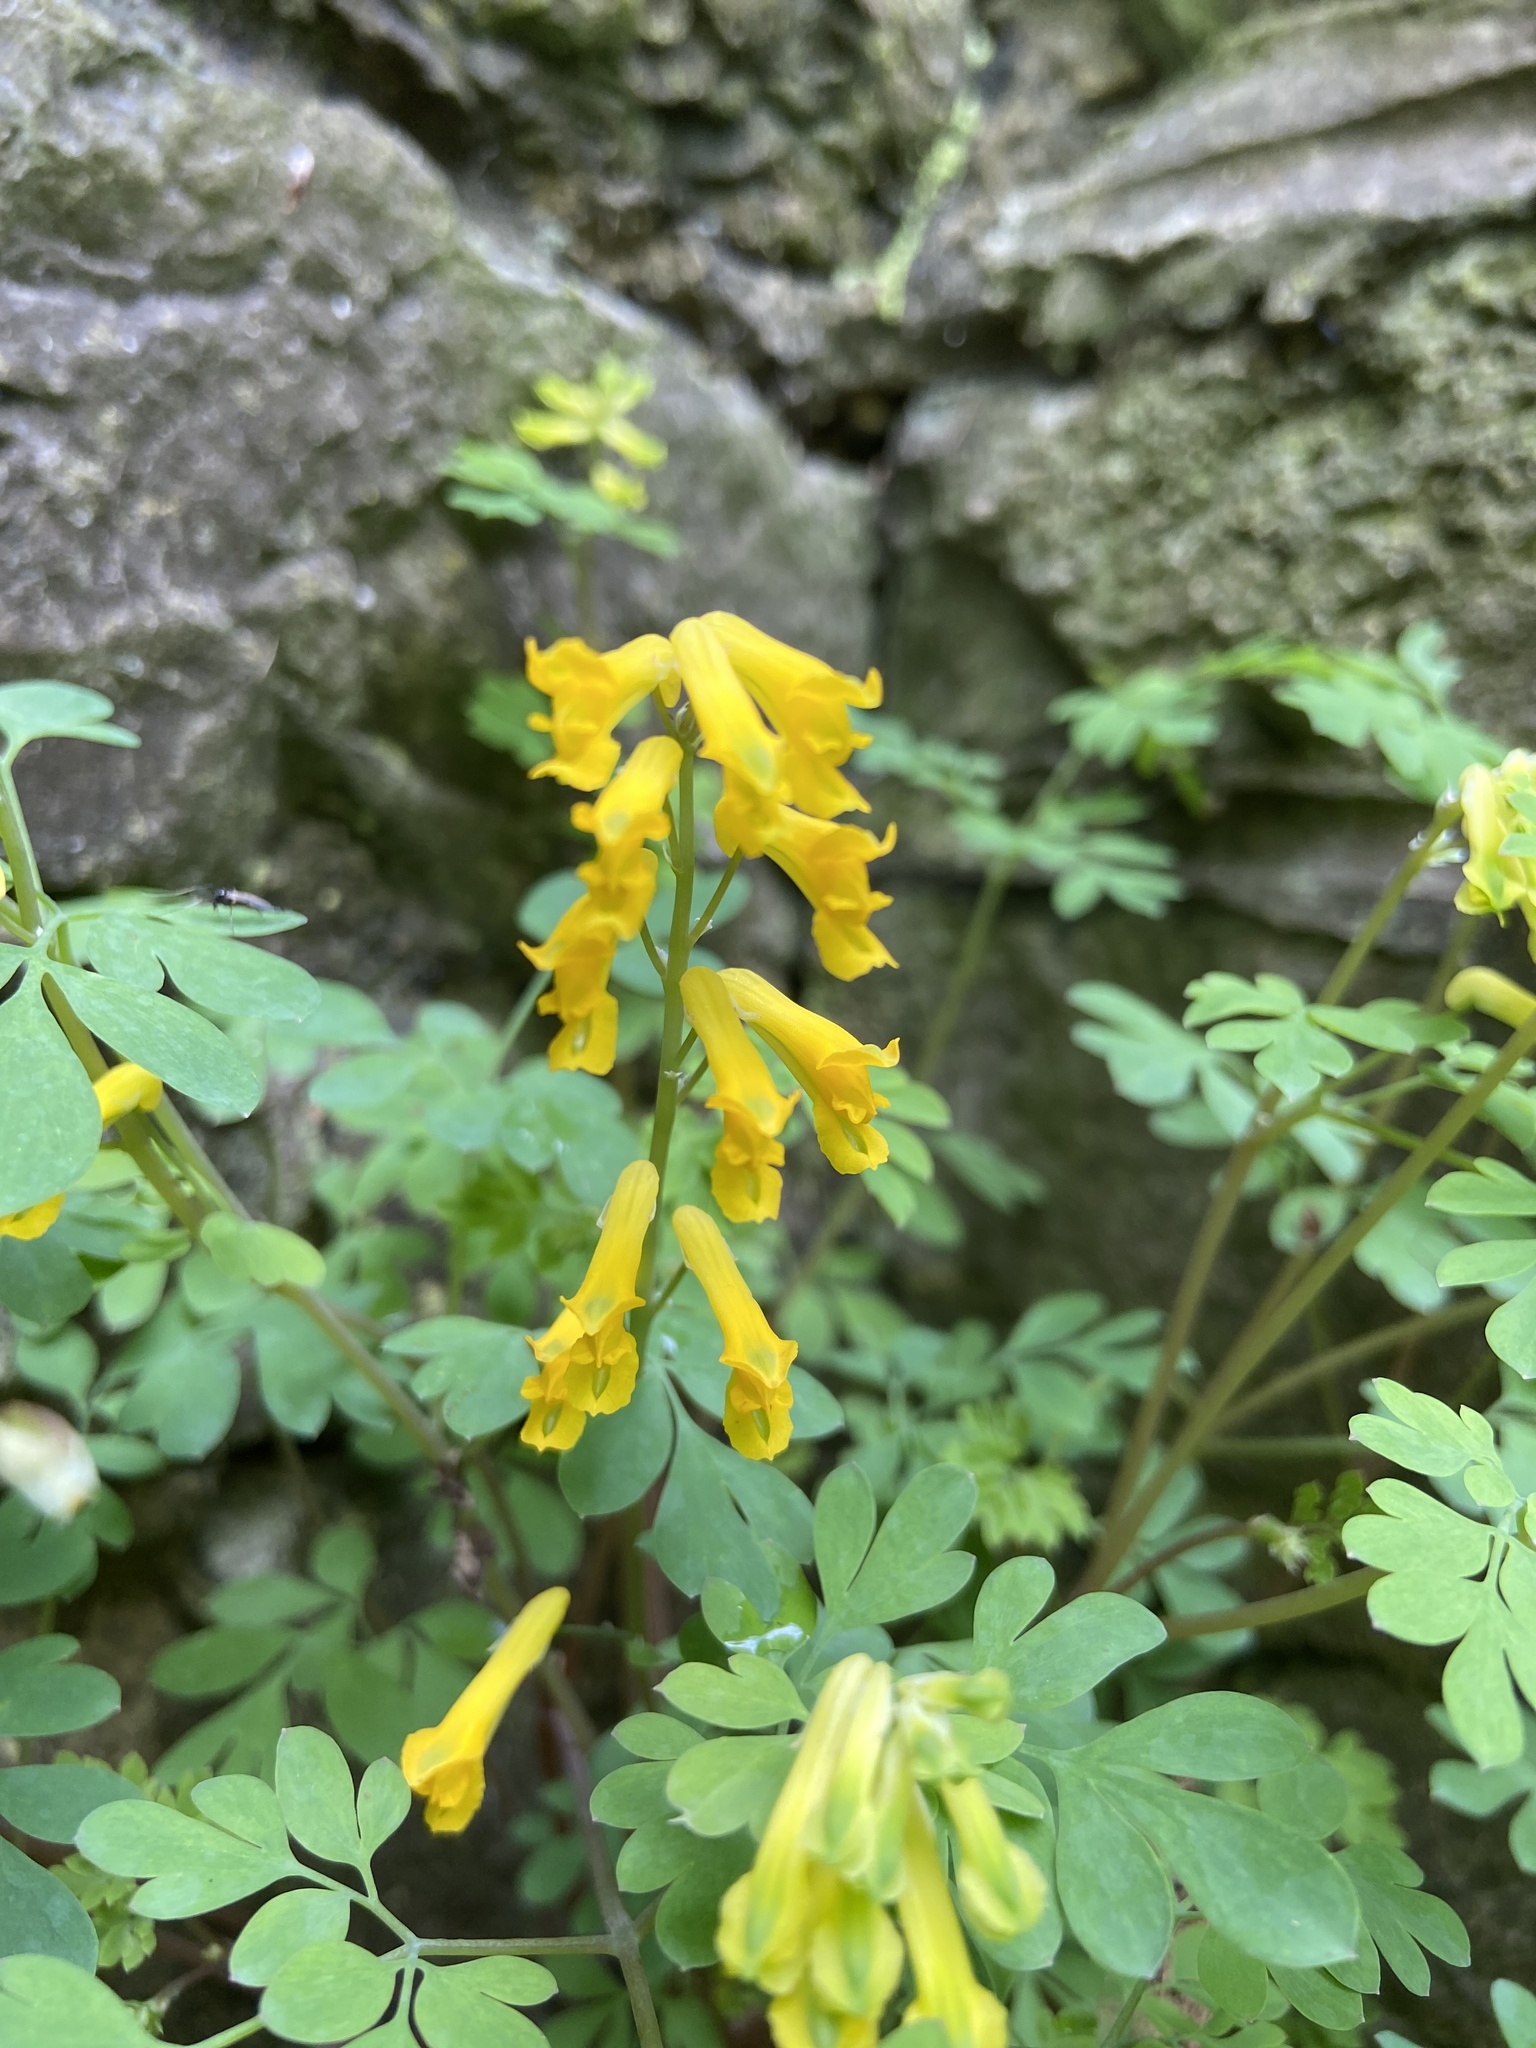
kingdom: Plantae
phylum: Tracheophyta
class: Magnoliopsida
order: Ranunculales
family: Papaveraceae
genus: Pseudofumaria
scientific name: Pseudofumaria lutea
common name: Yellow corydalis
